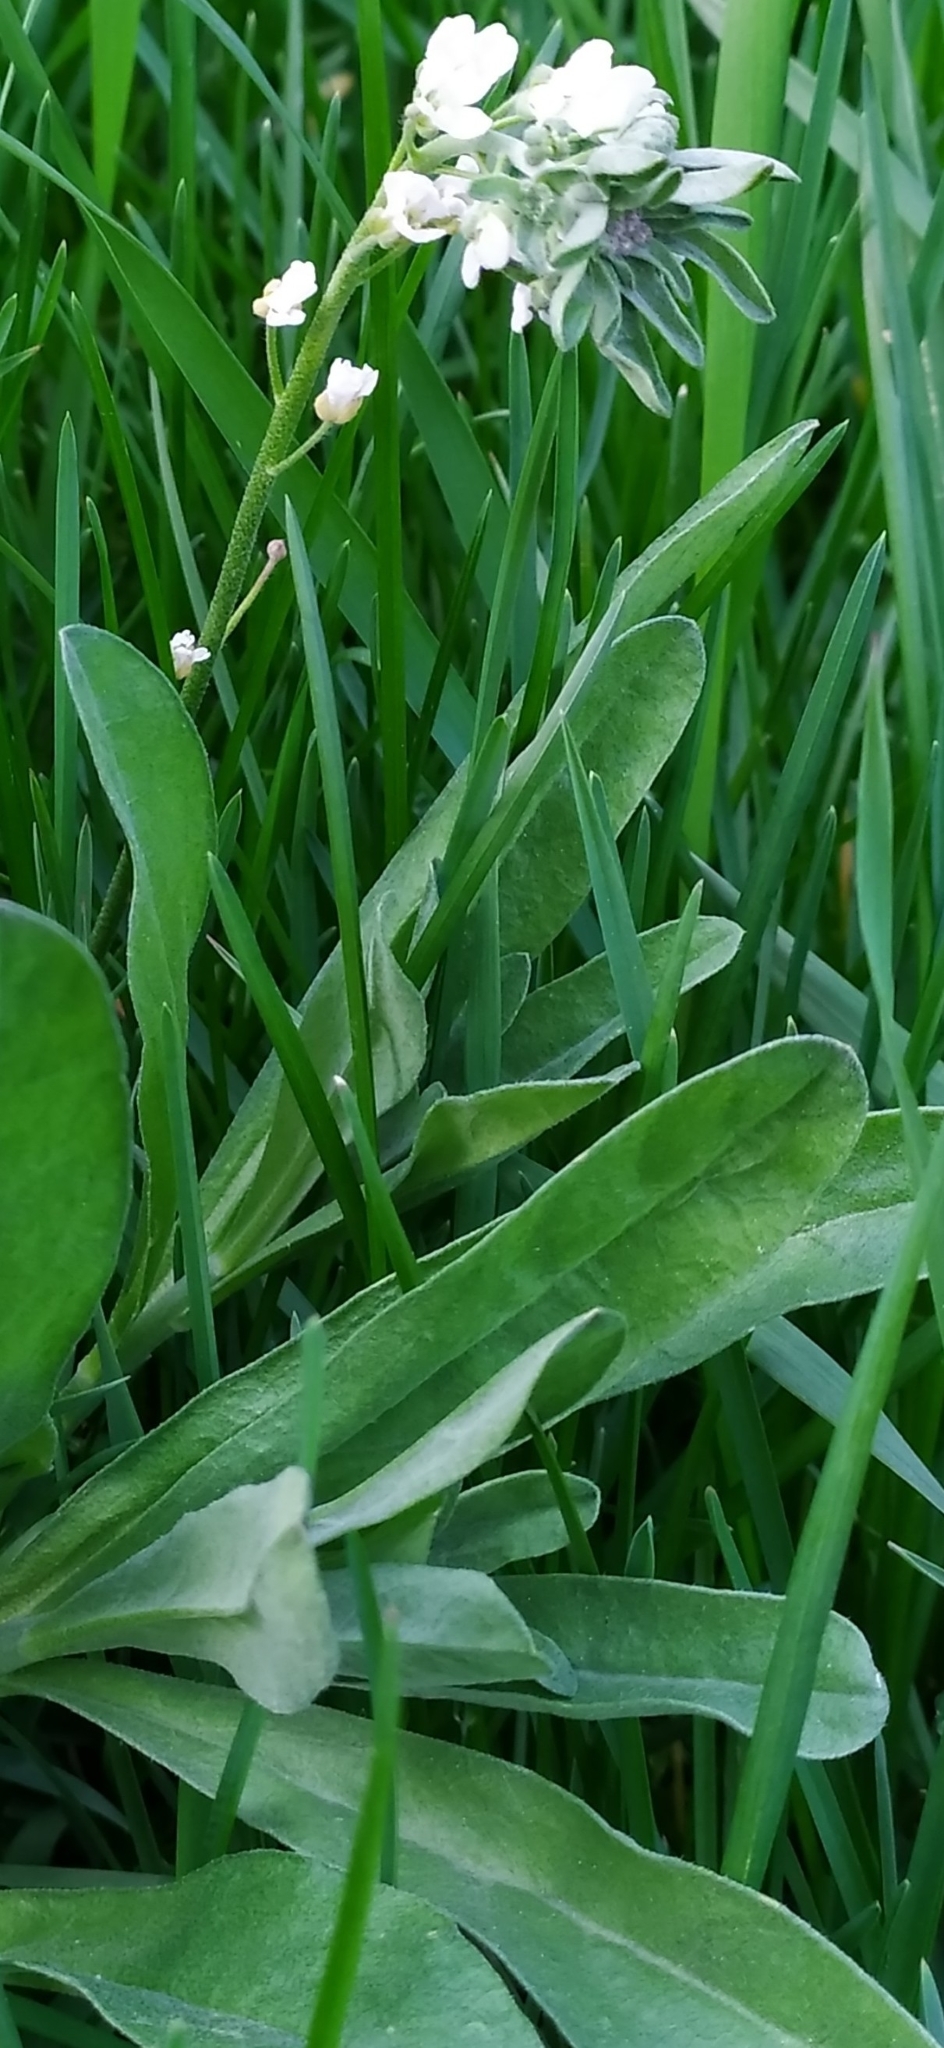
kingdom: Plantae
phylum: Tracheophyta
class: Magnoliopsida
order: Brassicales
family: Brassicaceae
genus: Berteroa
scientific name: Berteroa incana
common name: Hoary alison
